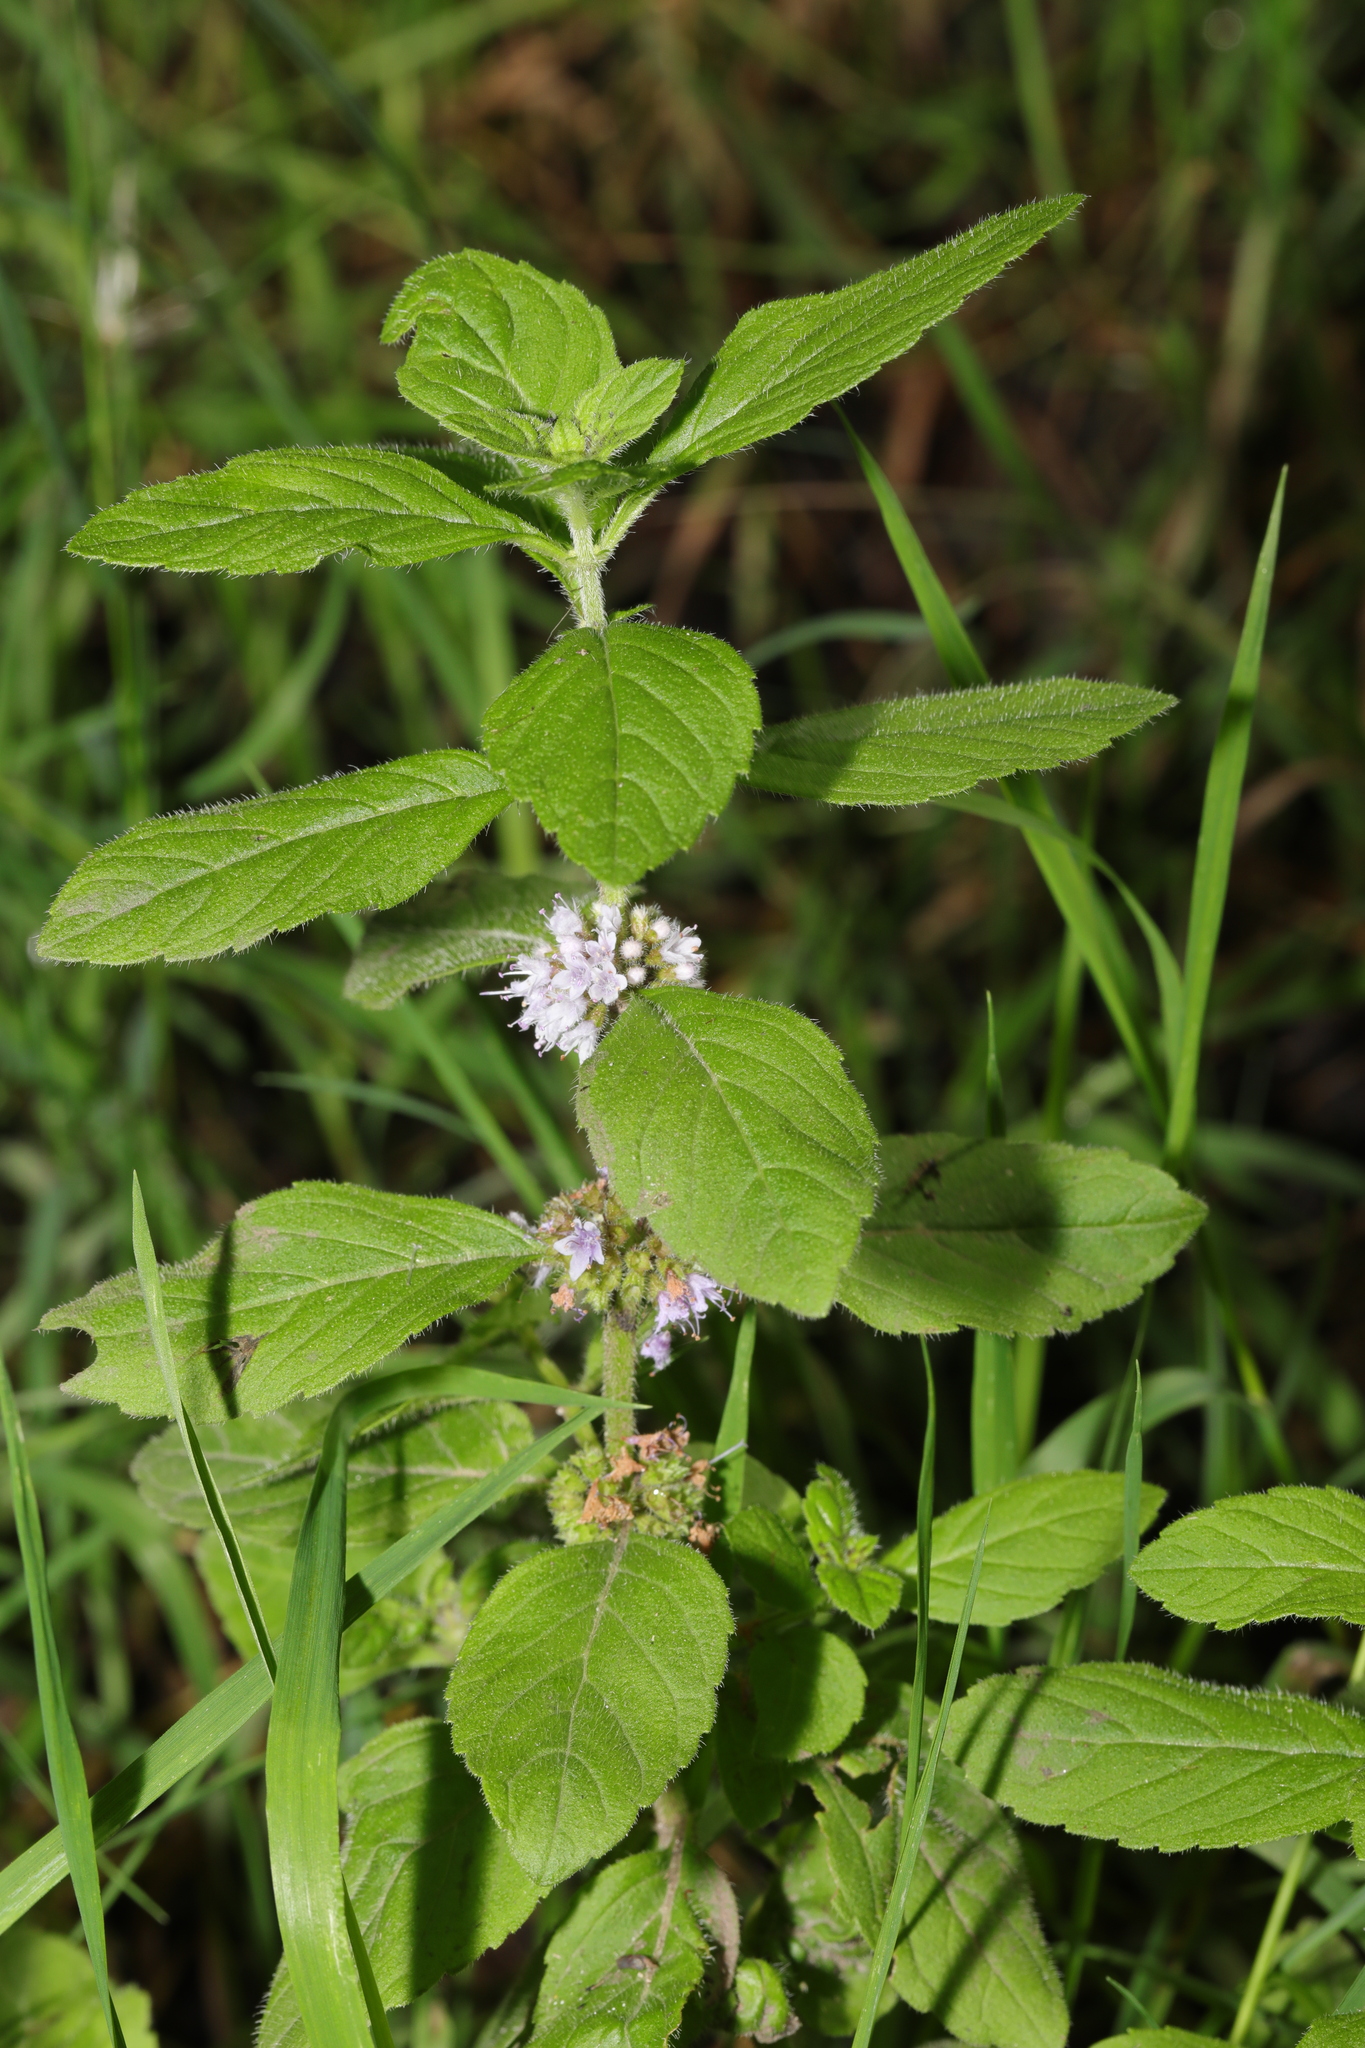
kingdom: Plantae
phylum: Tracheophyta
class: Magnoliopsida
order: Lamiales
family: Lamiaceae
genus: Mentha
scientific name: Mentha arvensis
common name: Corn mint
